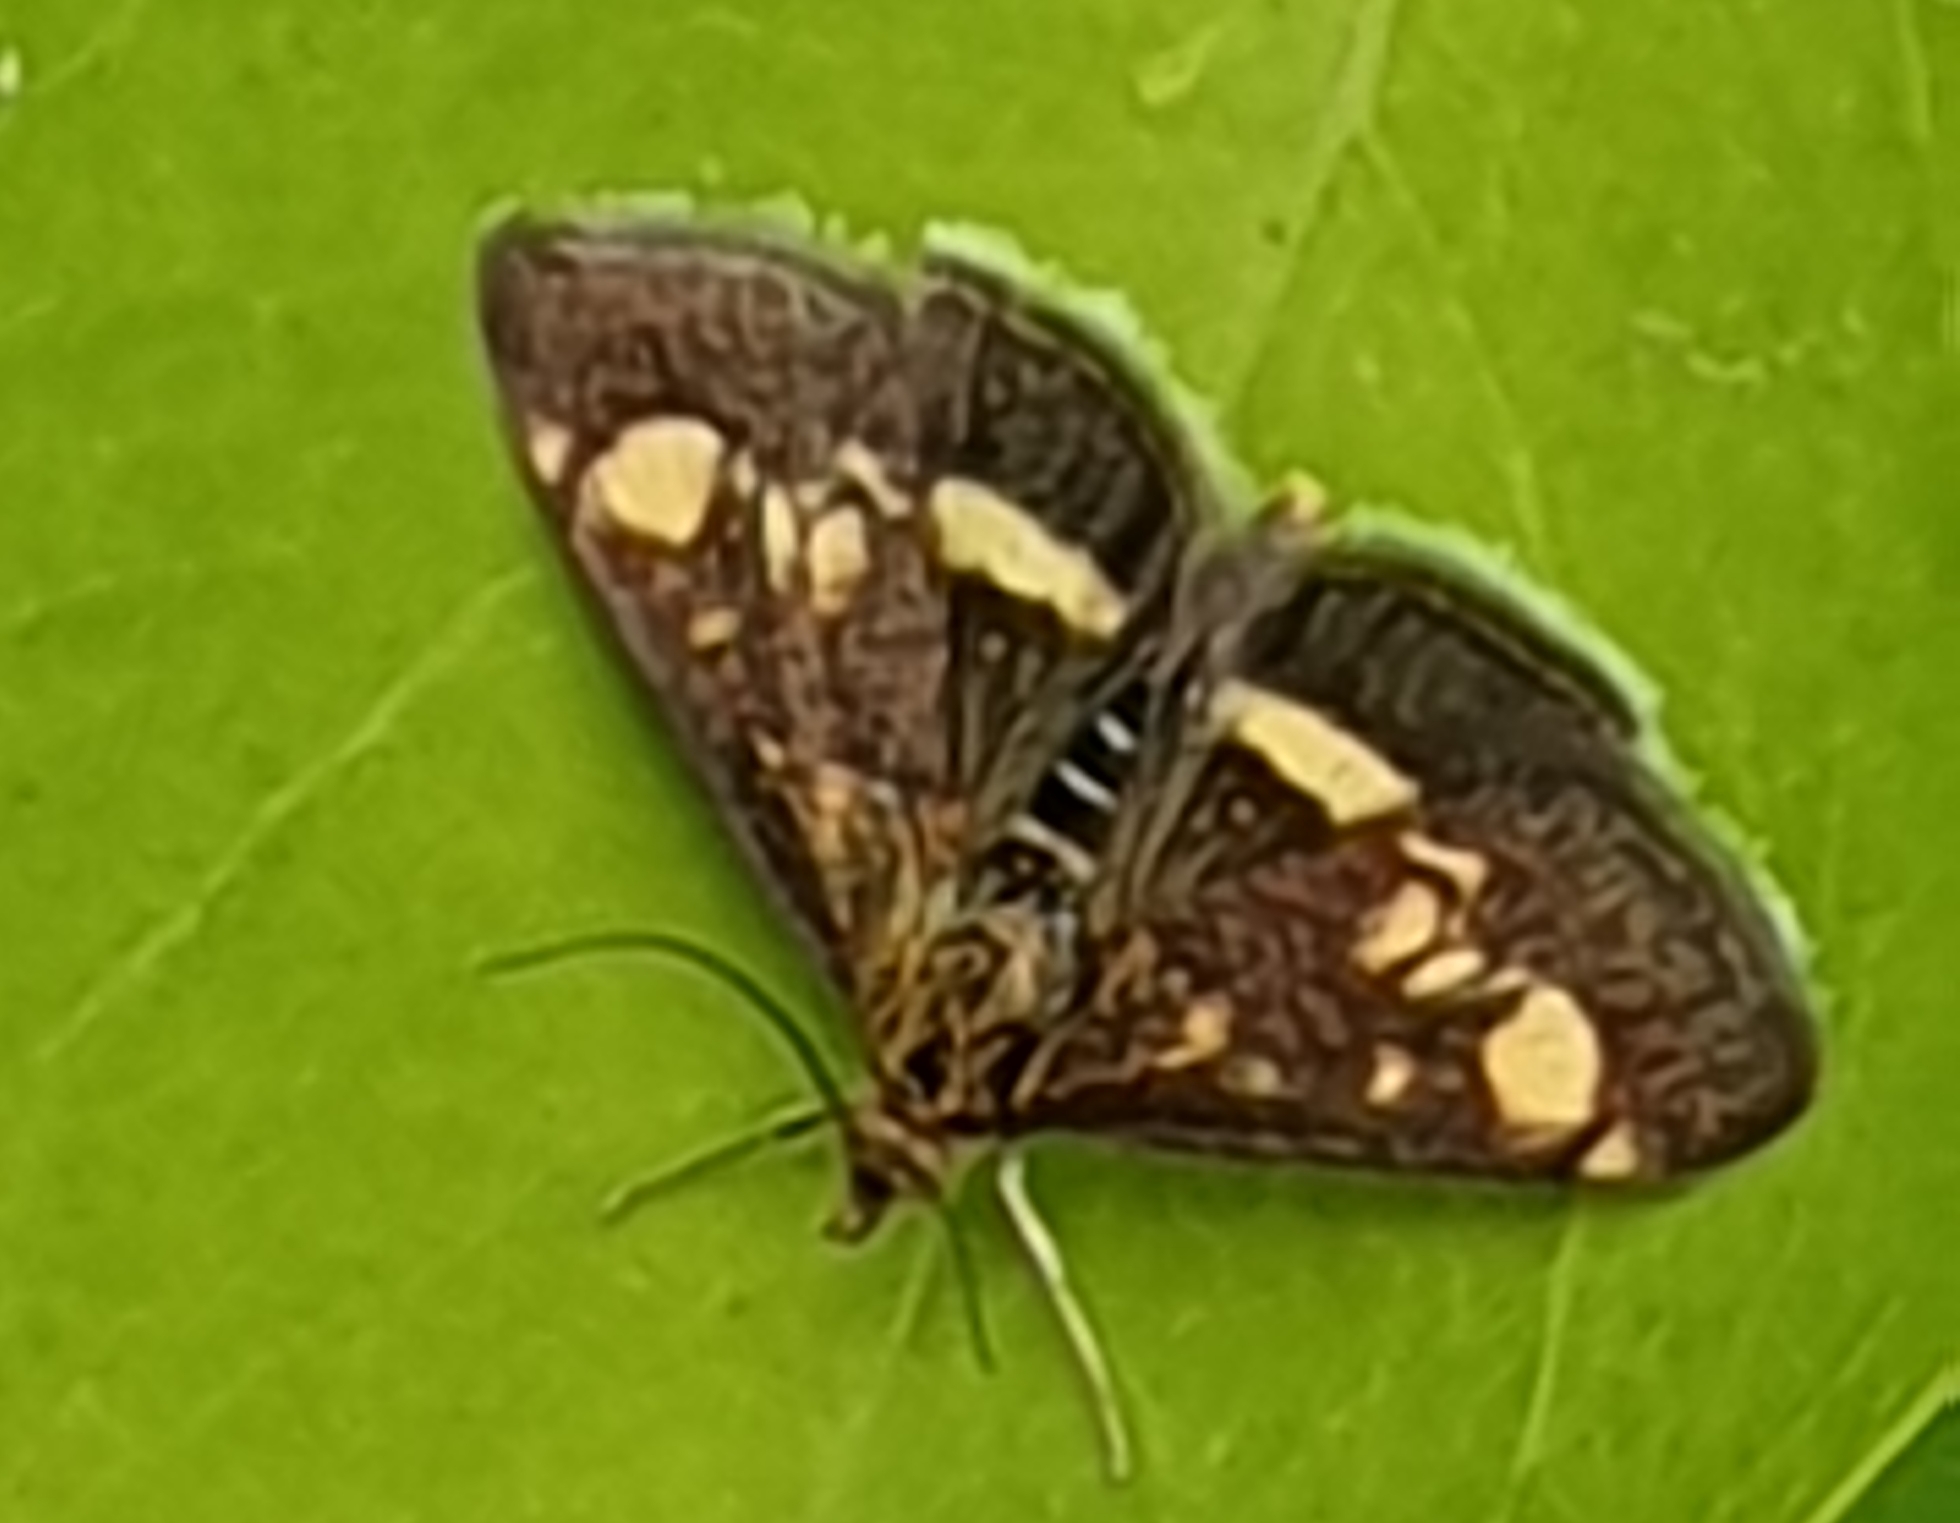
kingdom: Animalia
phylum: Arthropoda
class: Insecta
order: Lepidoptera
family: Crambidae
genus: Pyrausta
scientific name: Pyrausta aurata
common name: Small purple & gold
